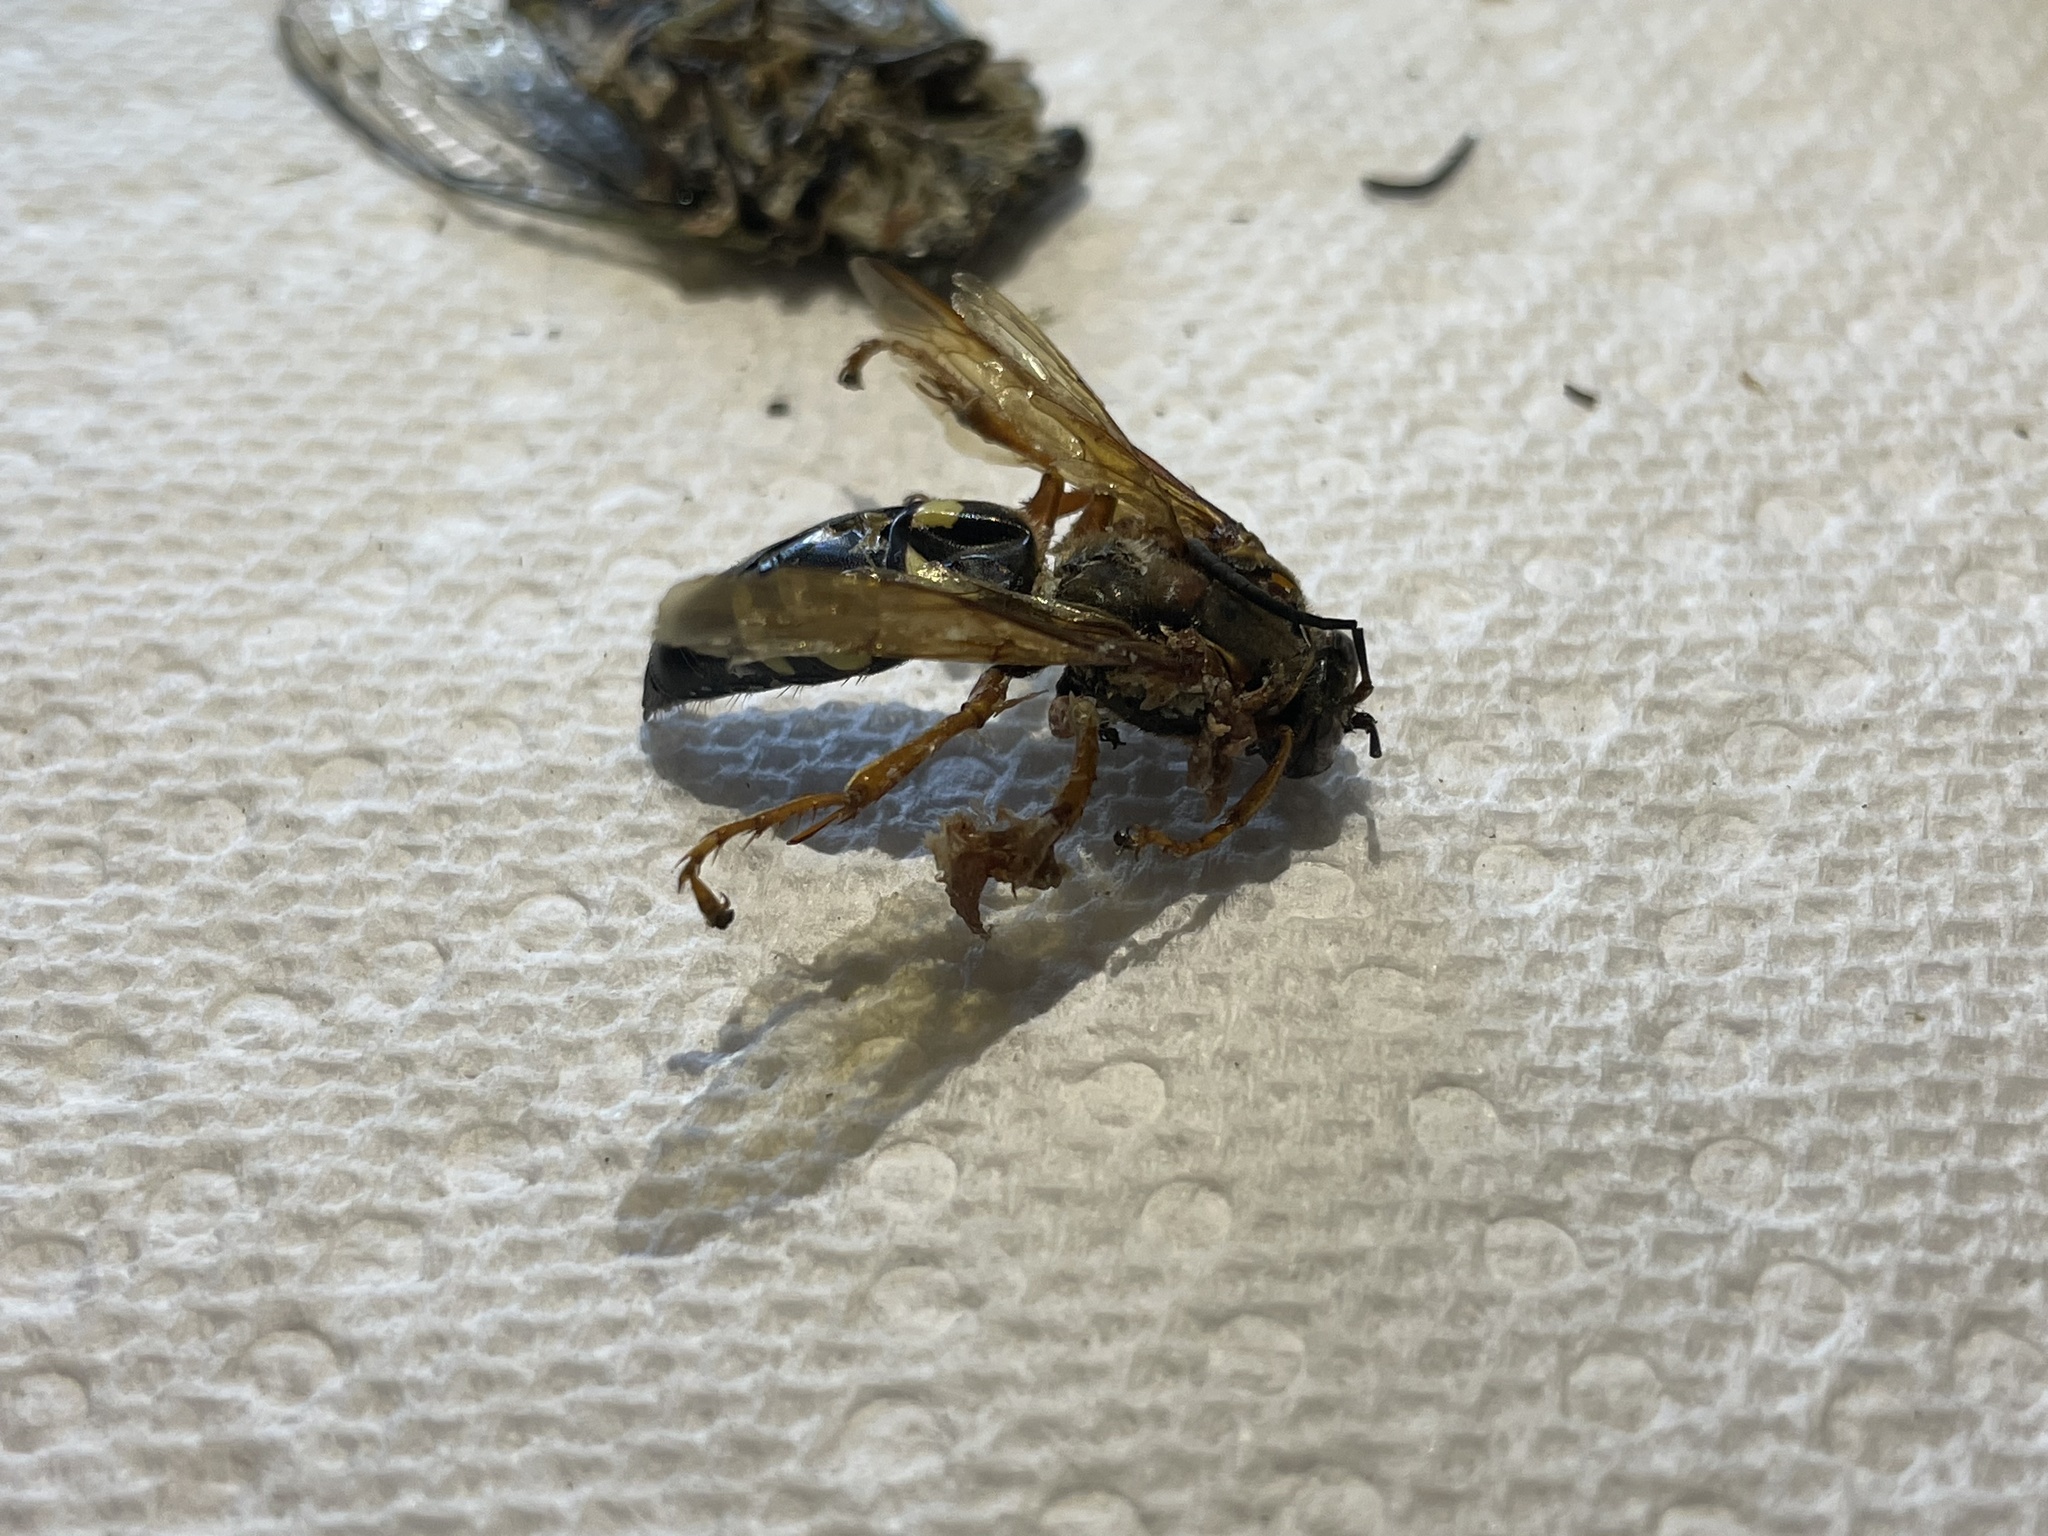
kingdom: Animalia
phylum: Arthropoda
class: Insecta
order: Hymenoptera
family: Crabronidae
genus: Sphecius
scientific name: Sphecius speciosus
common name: Cicada killer
